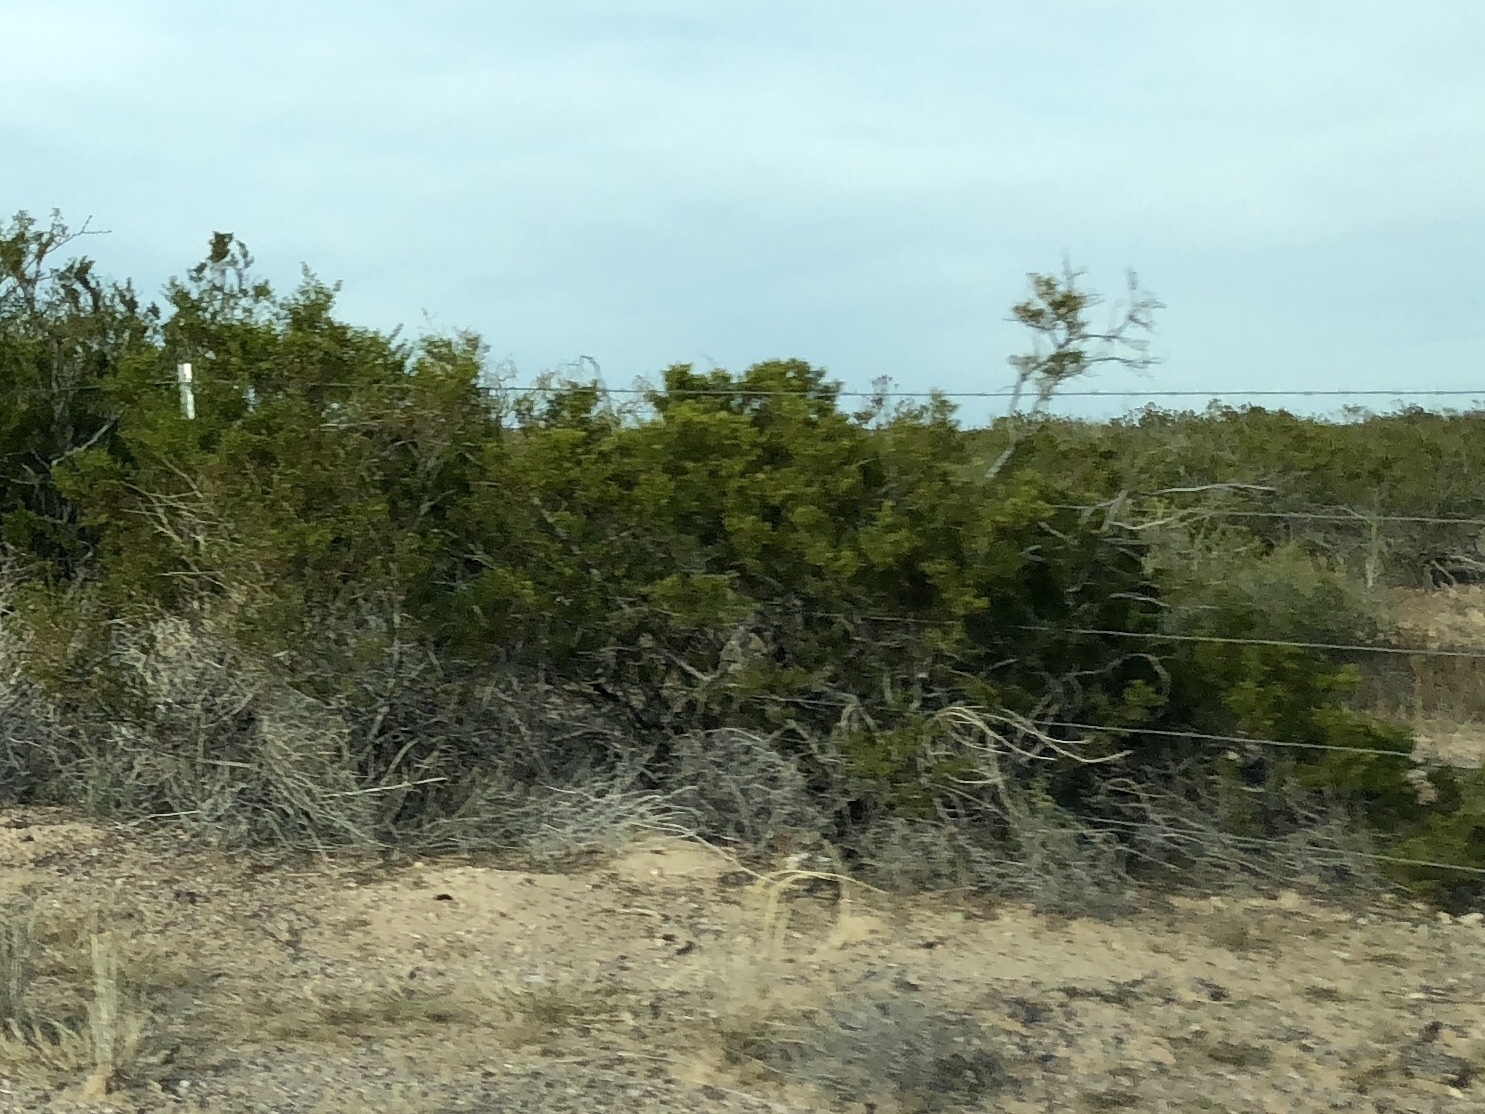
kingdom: Plantae
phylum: Tracheophyta
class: Magnoliopsida
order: Zygophyllales
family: Zygophyllaceae
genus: Larrea
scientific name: Larrea tridentata
